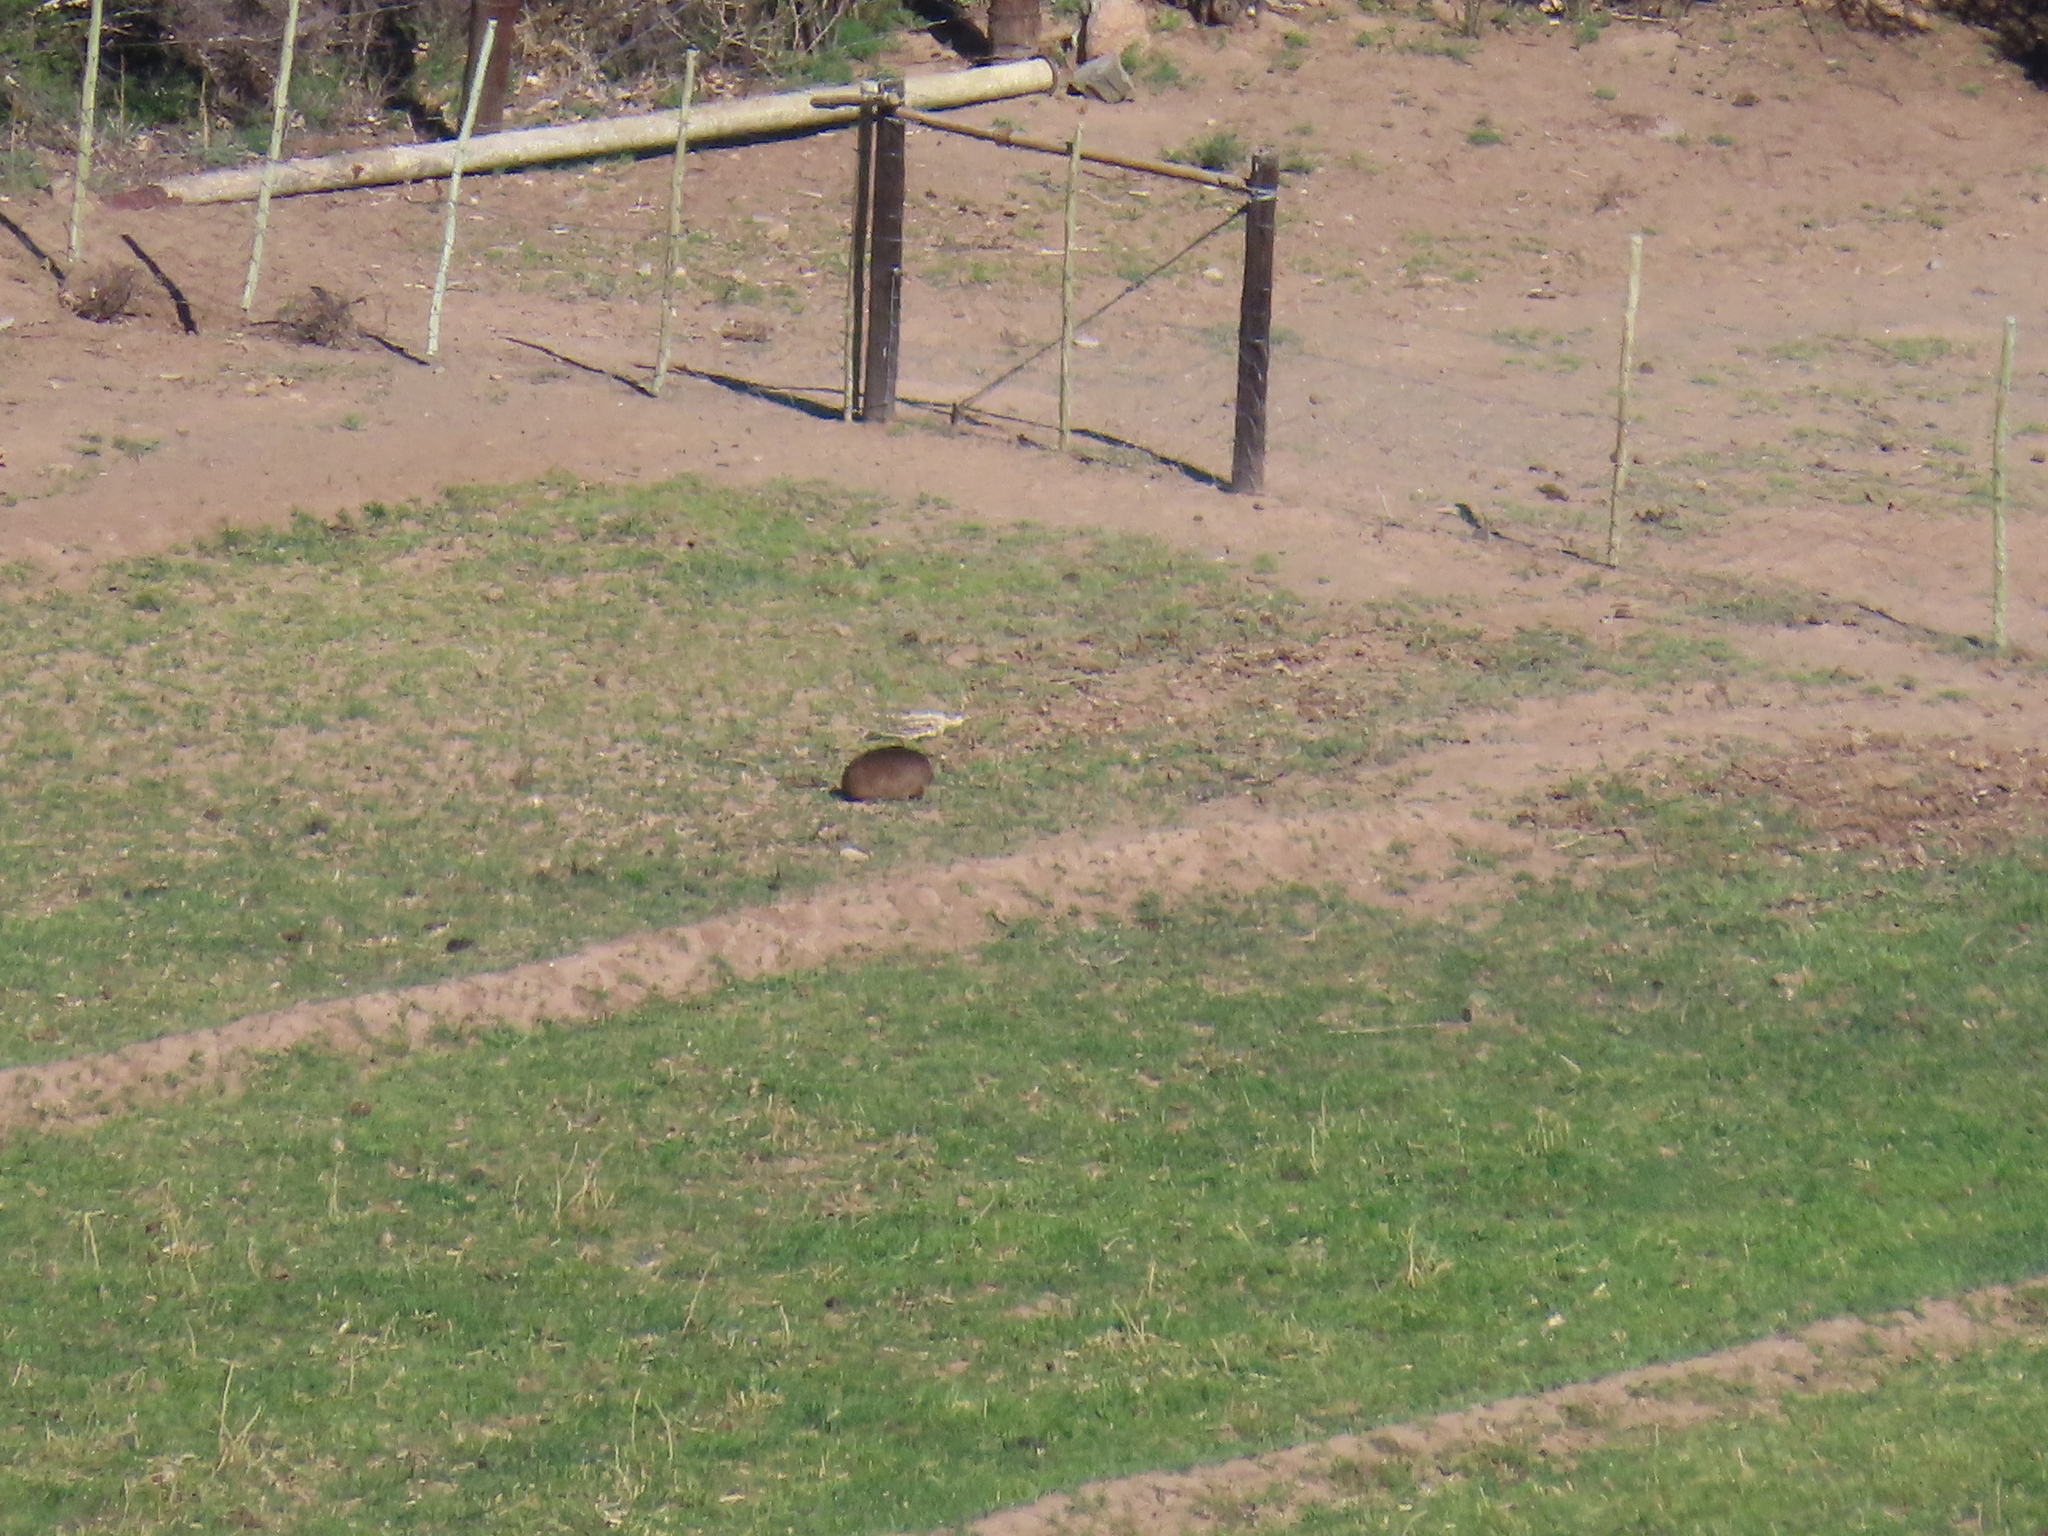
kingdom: Animalia
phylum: Chordata
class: Mammalia
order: Hyracoidea
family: Procaviidae
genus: Procavia
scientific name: Procavia capensis
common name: Rock hyrax
